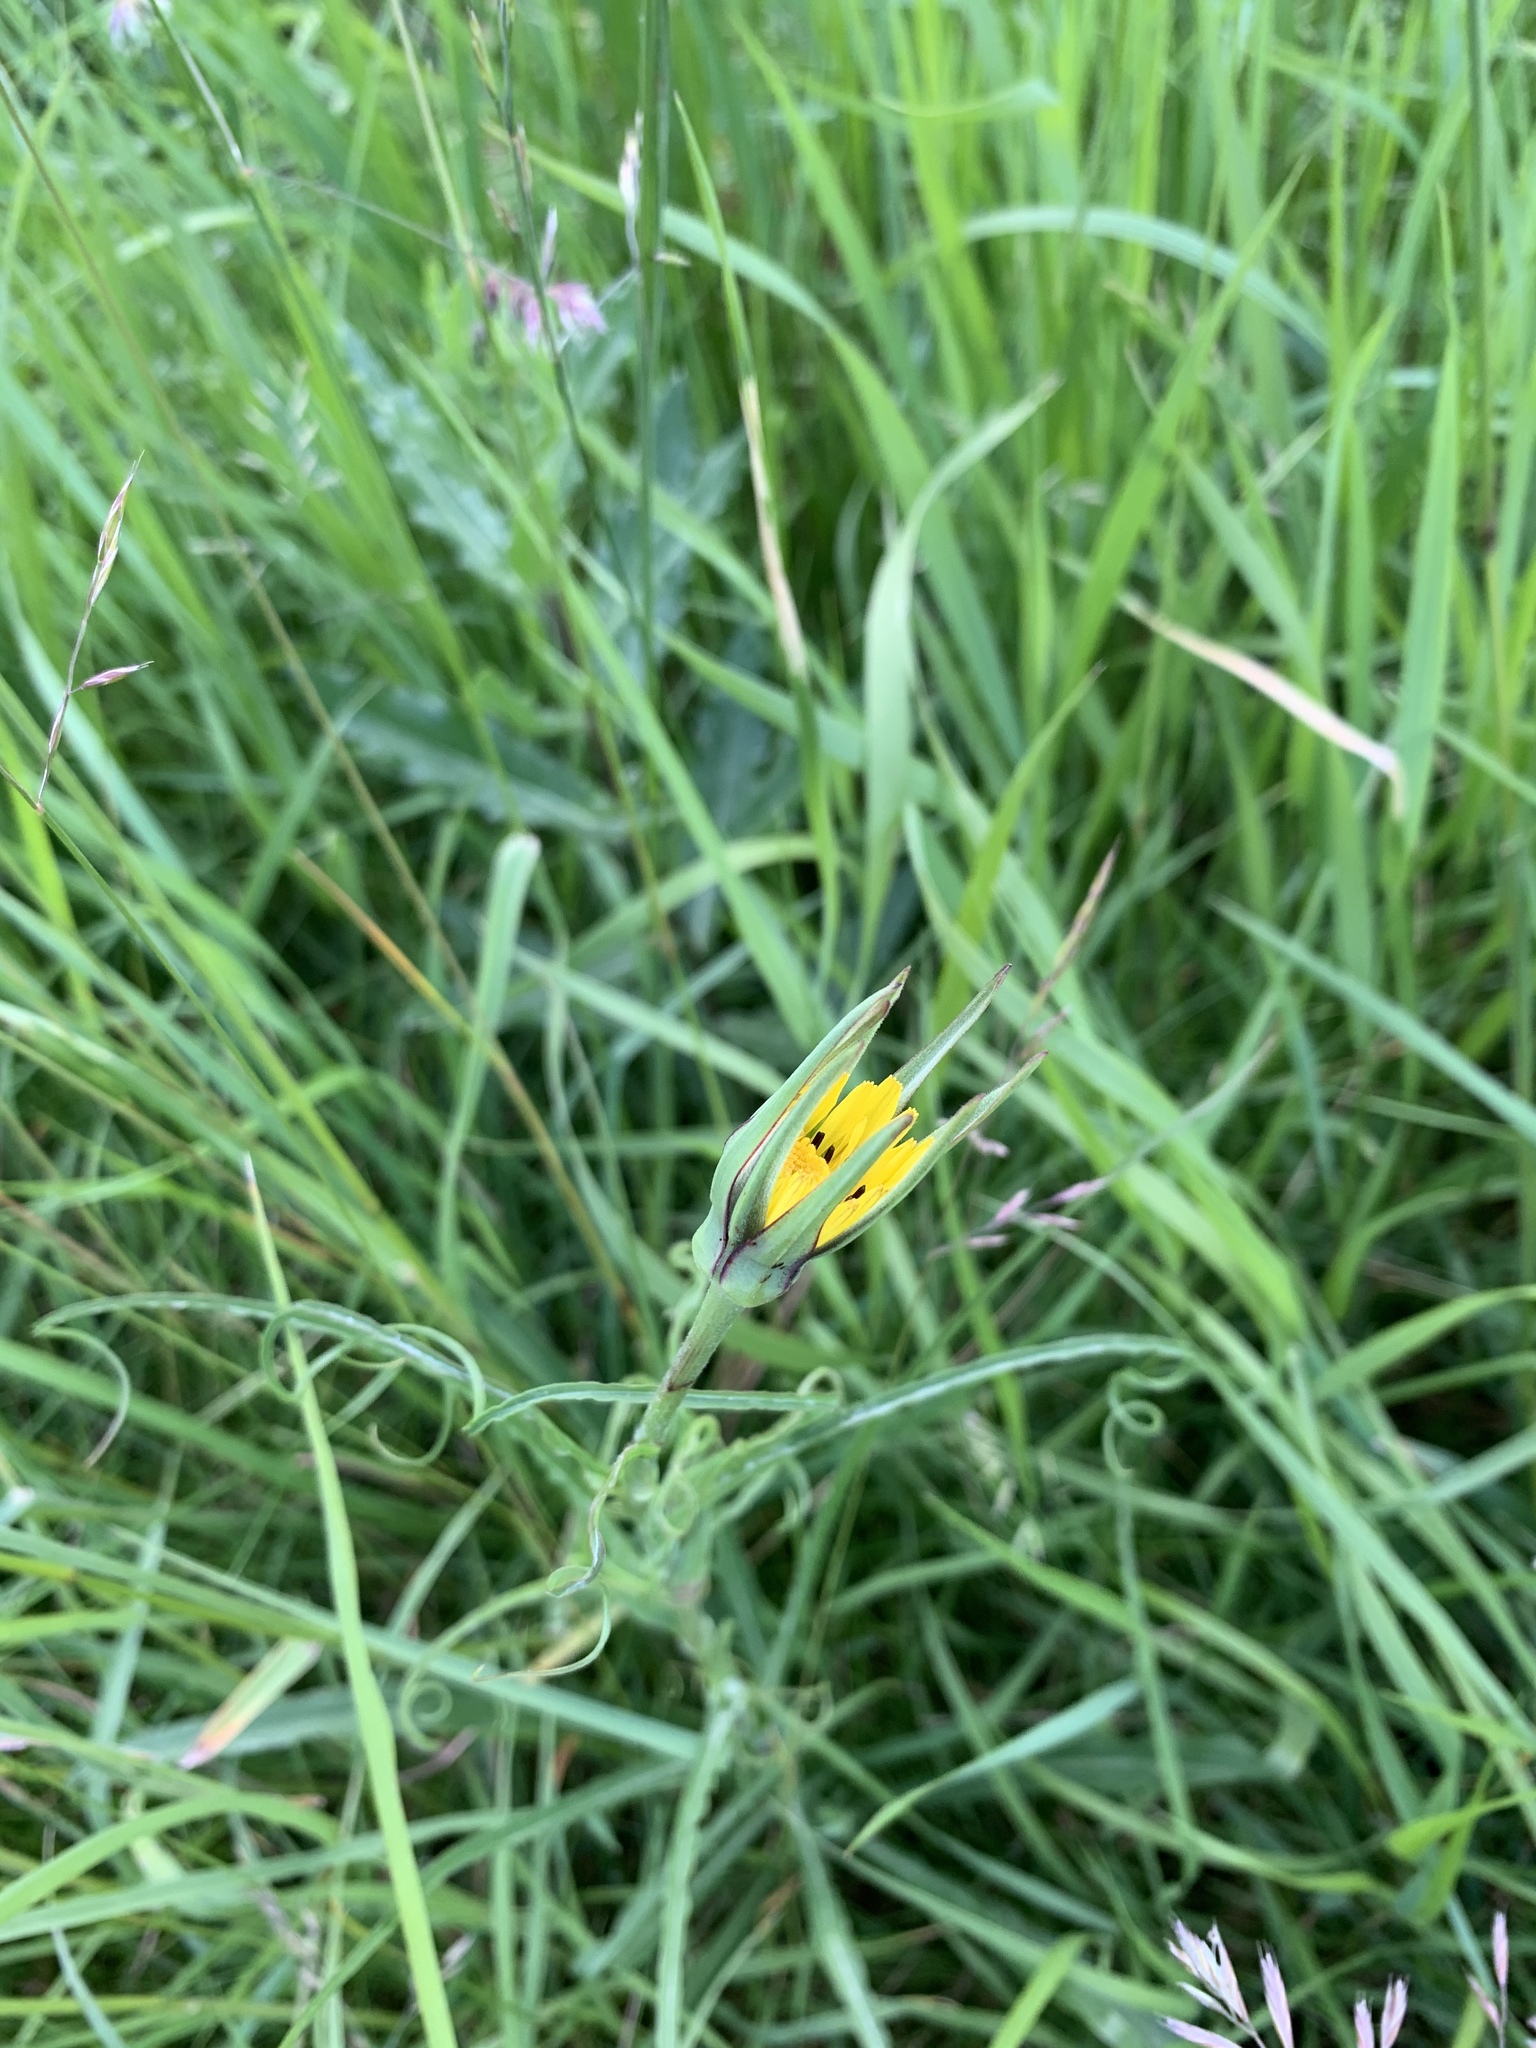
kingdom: Plantae
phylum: Tracheophyta
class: Magnoliopsida
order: Asterales
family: Asteraceae
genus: Tragopogon
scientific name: Tragopogon pratensis
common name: Goat's-beard
